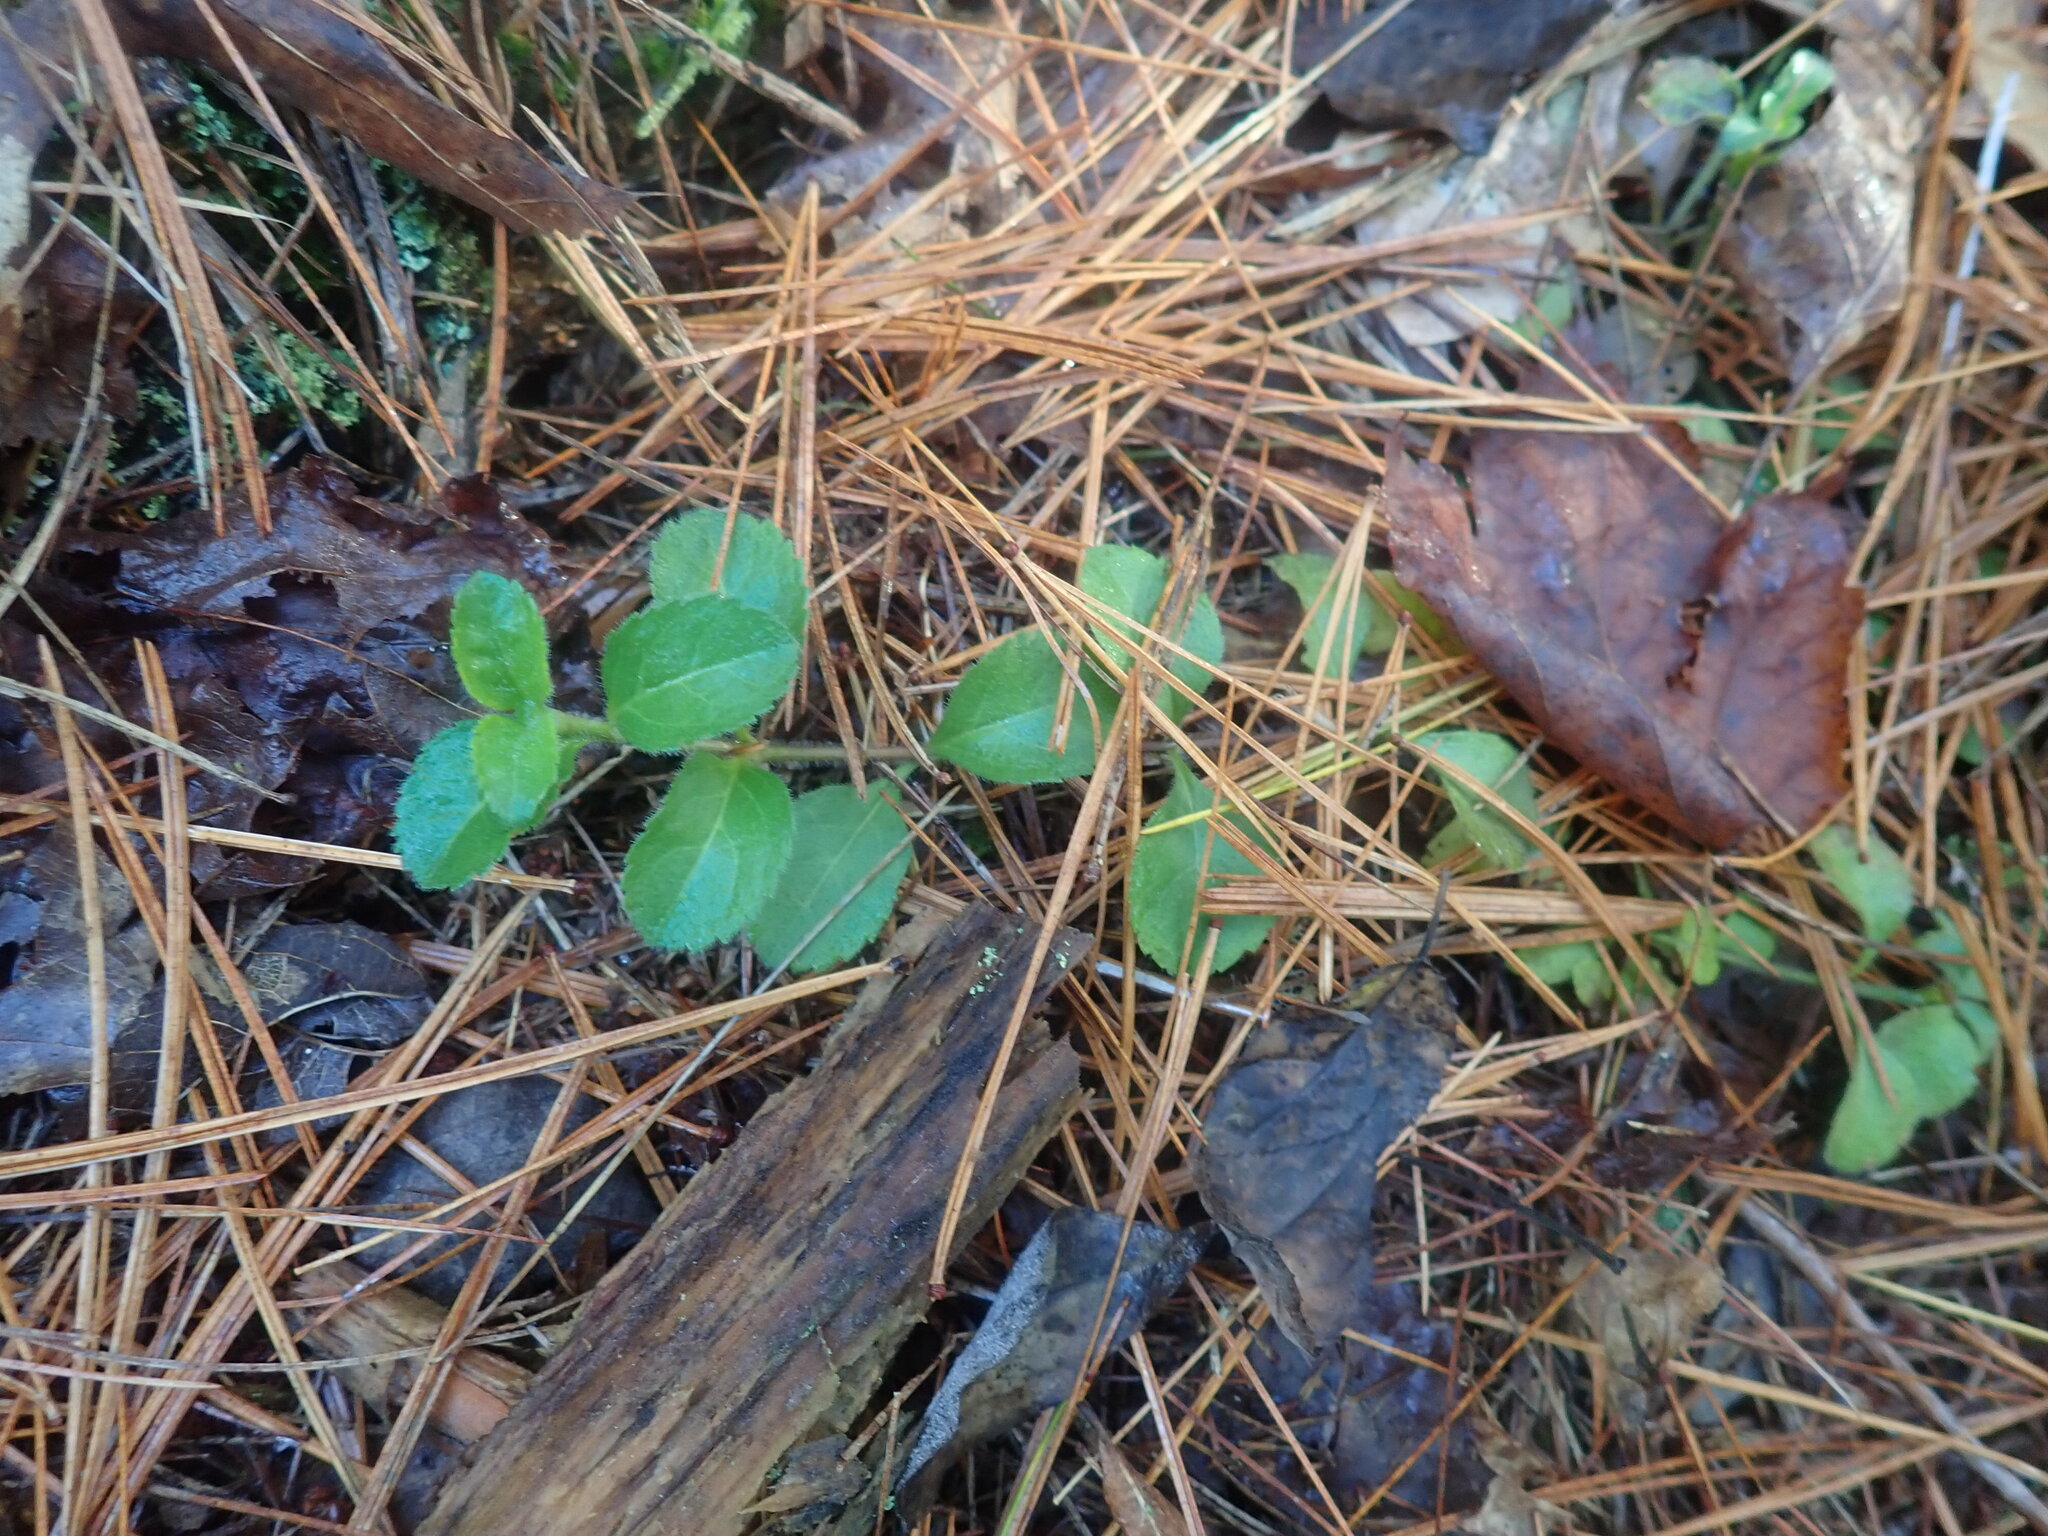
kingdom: Plantae
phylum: Tracheophyta
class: Magnoliopsida
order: Lamiales
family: Plantaginaceae
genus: Veronica
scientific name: Veronica officinalis
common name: Common speedwell
